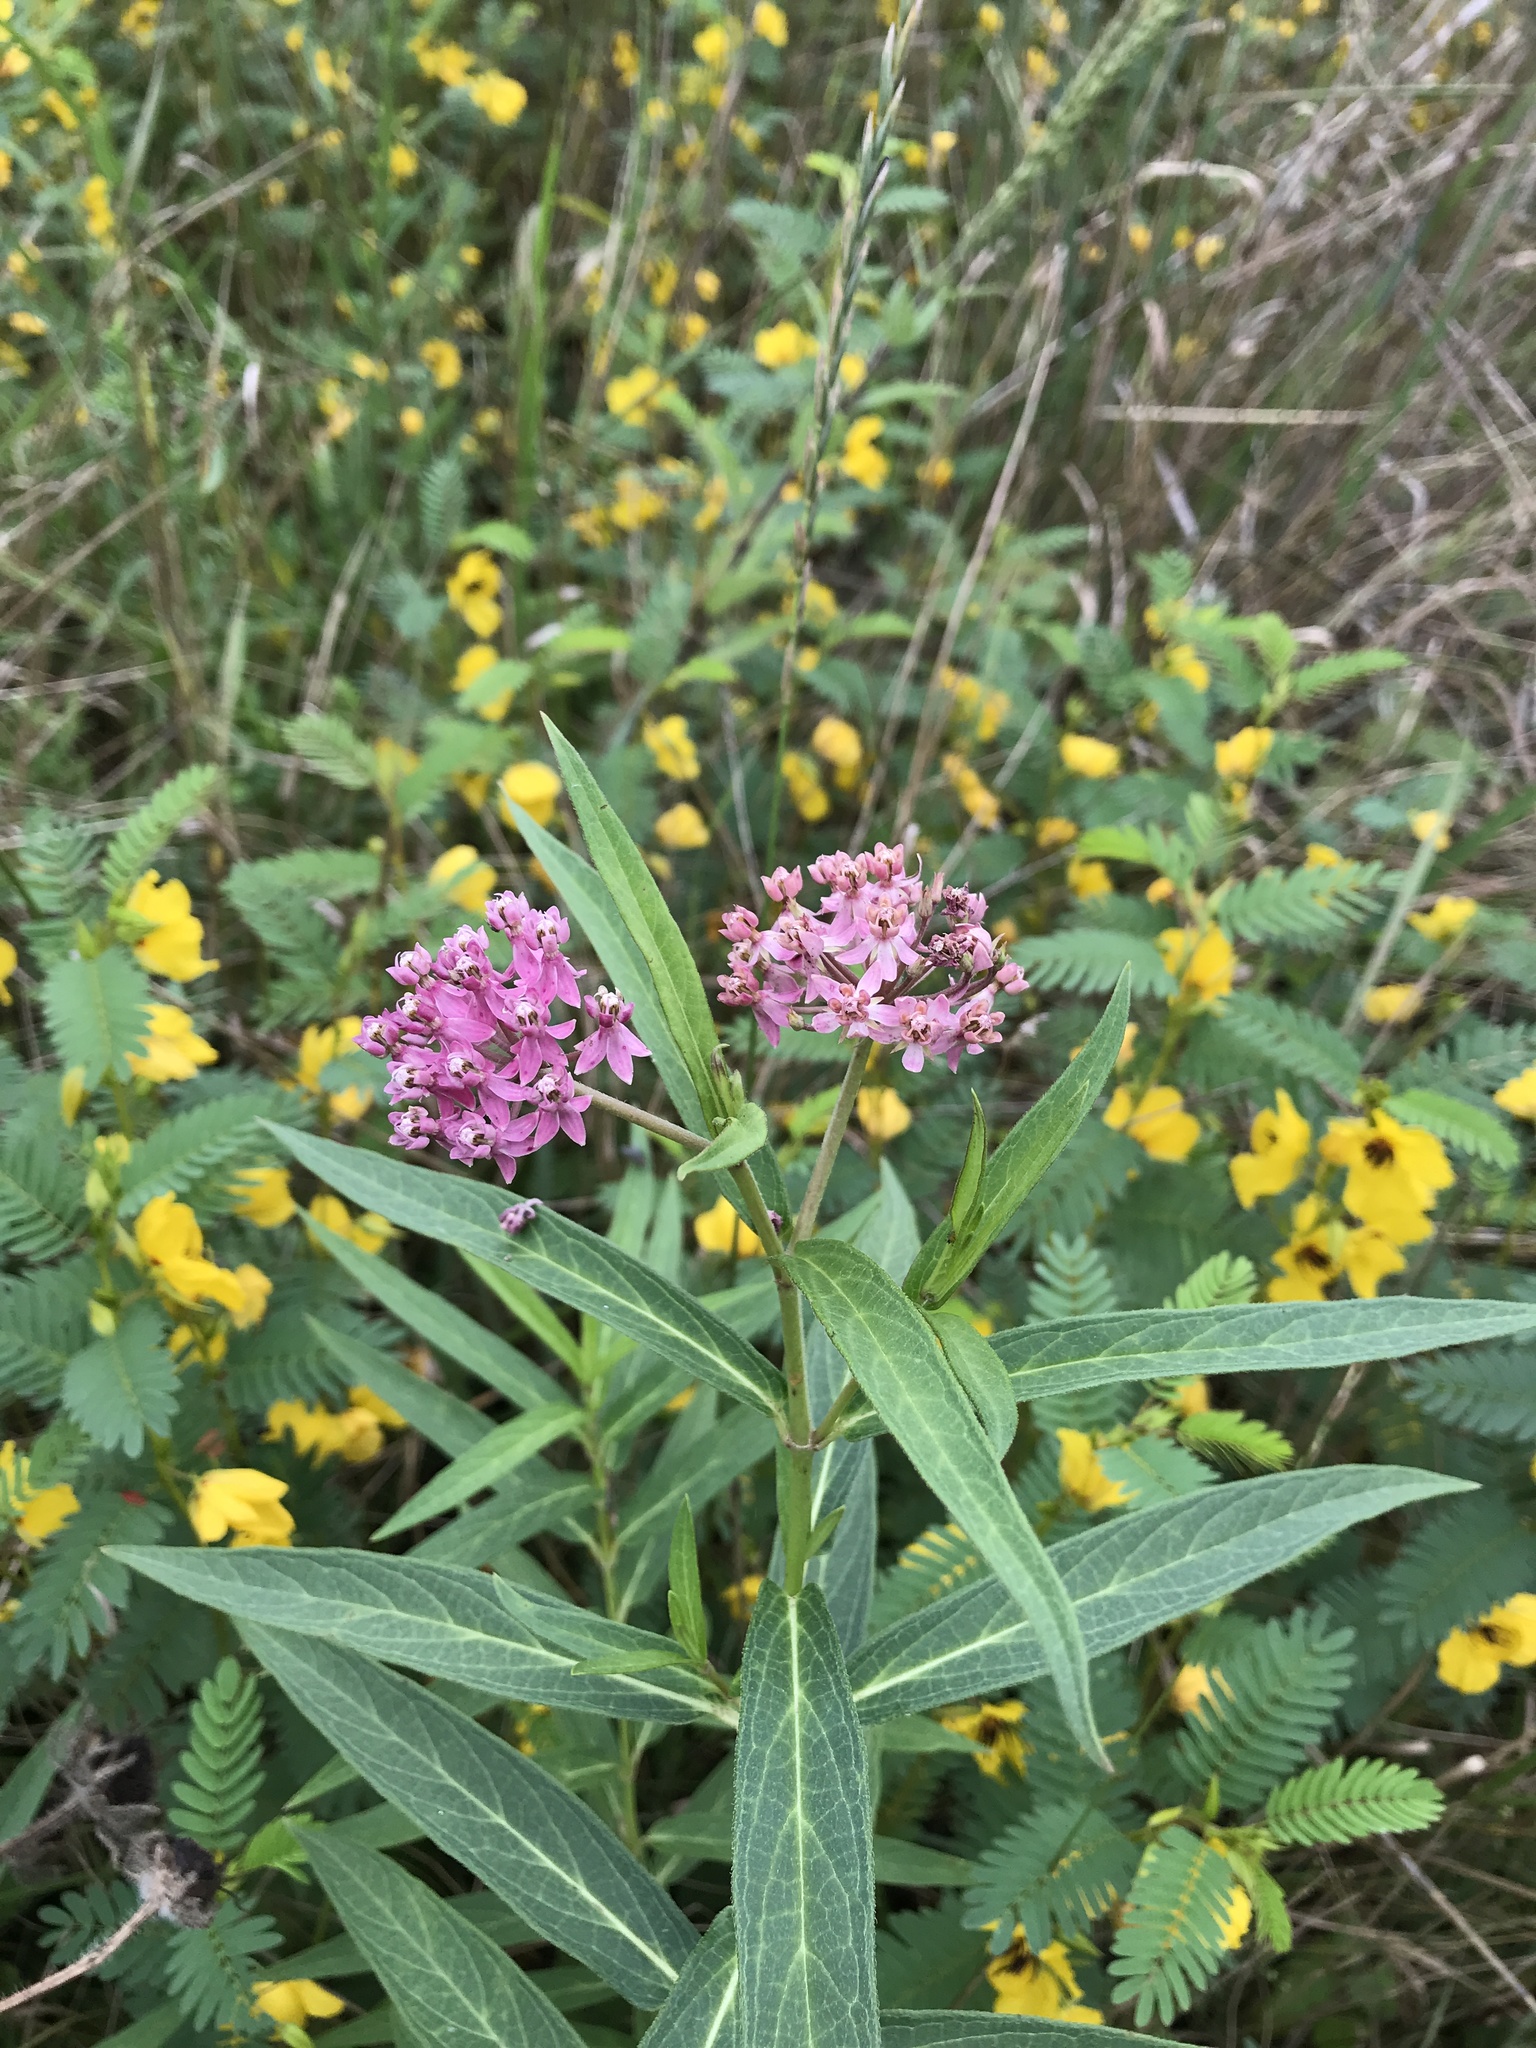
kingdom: Plantae
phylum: Tracheophyta
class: Magnoliopsida
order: Gentianales
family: Apocynaceae
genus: Asclepias
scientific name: Asclepias incarnata
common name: Swamp milkweed
